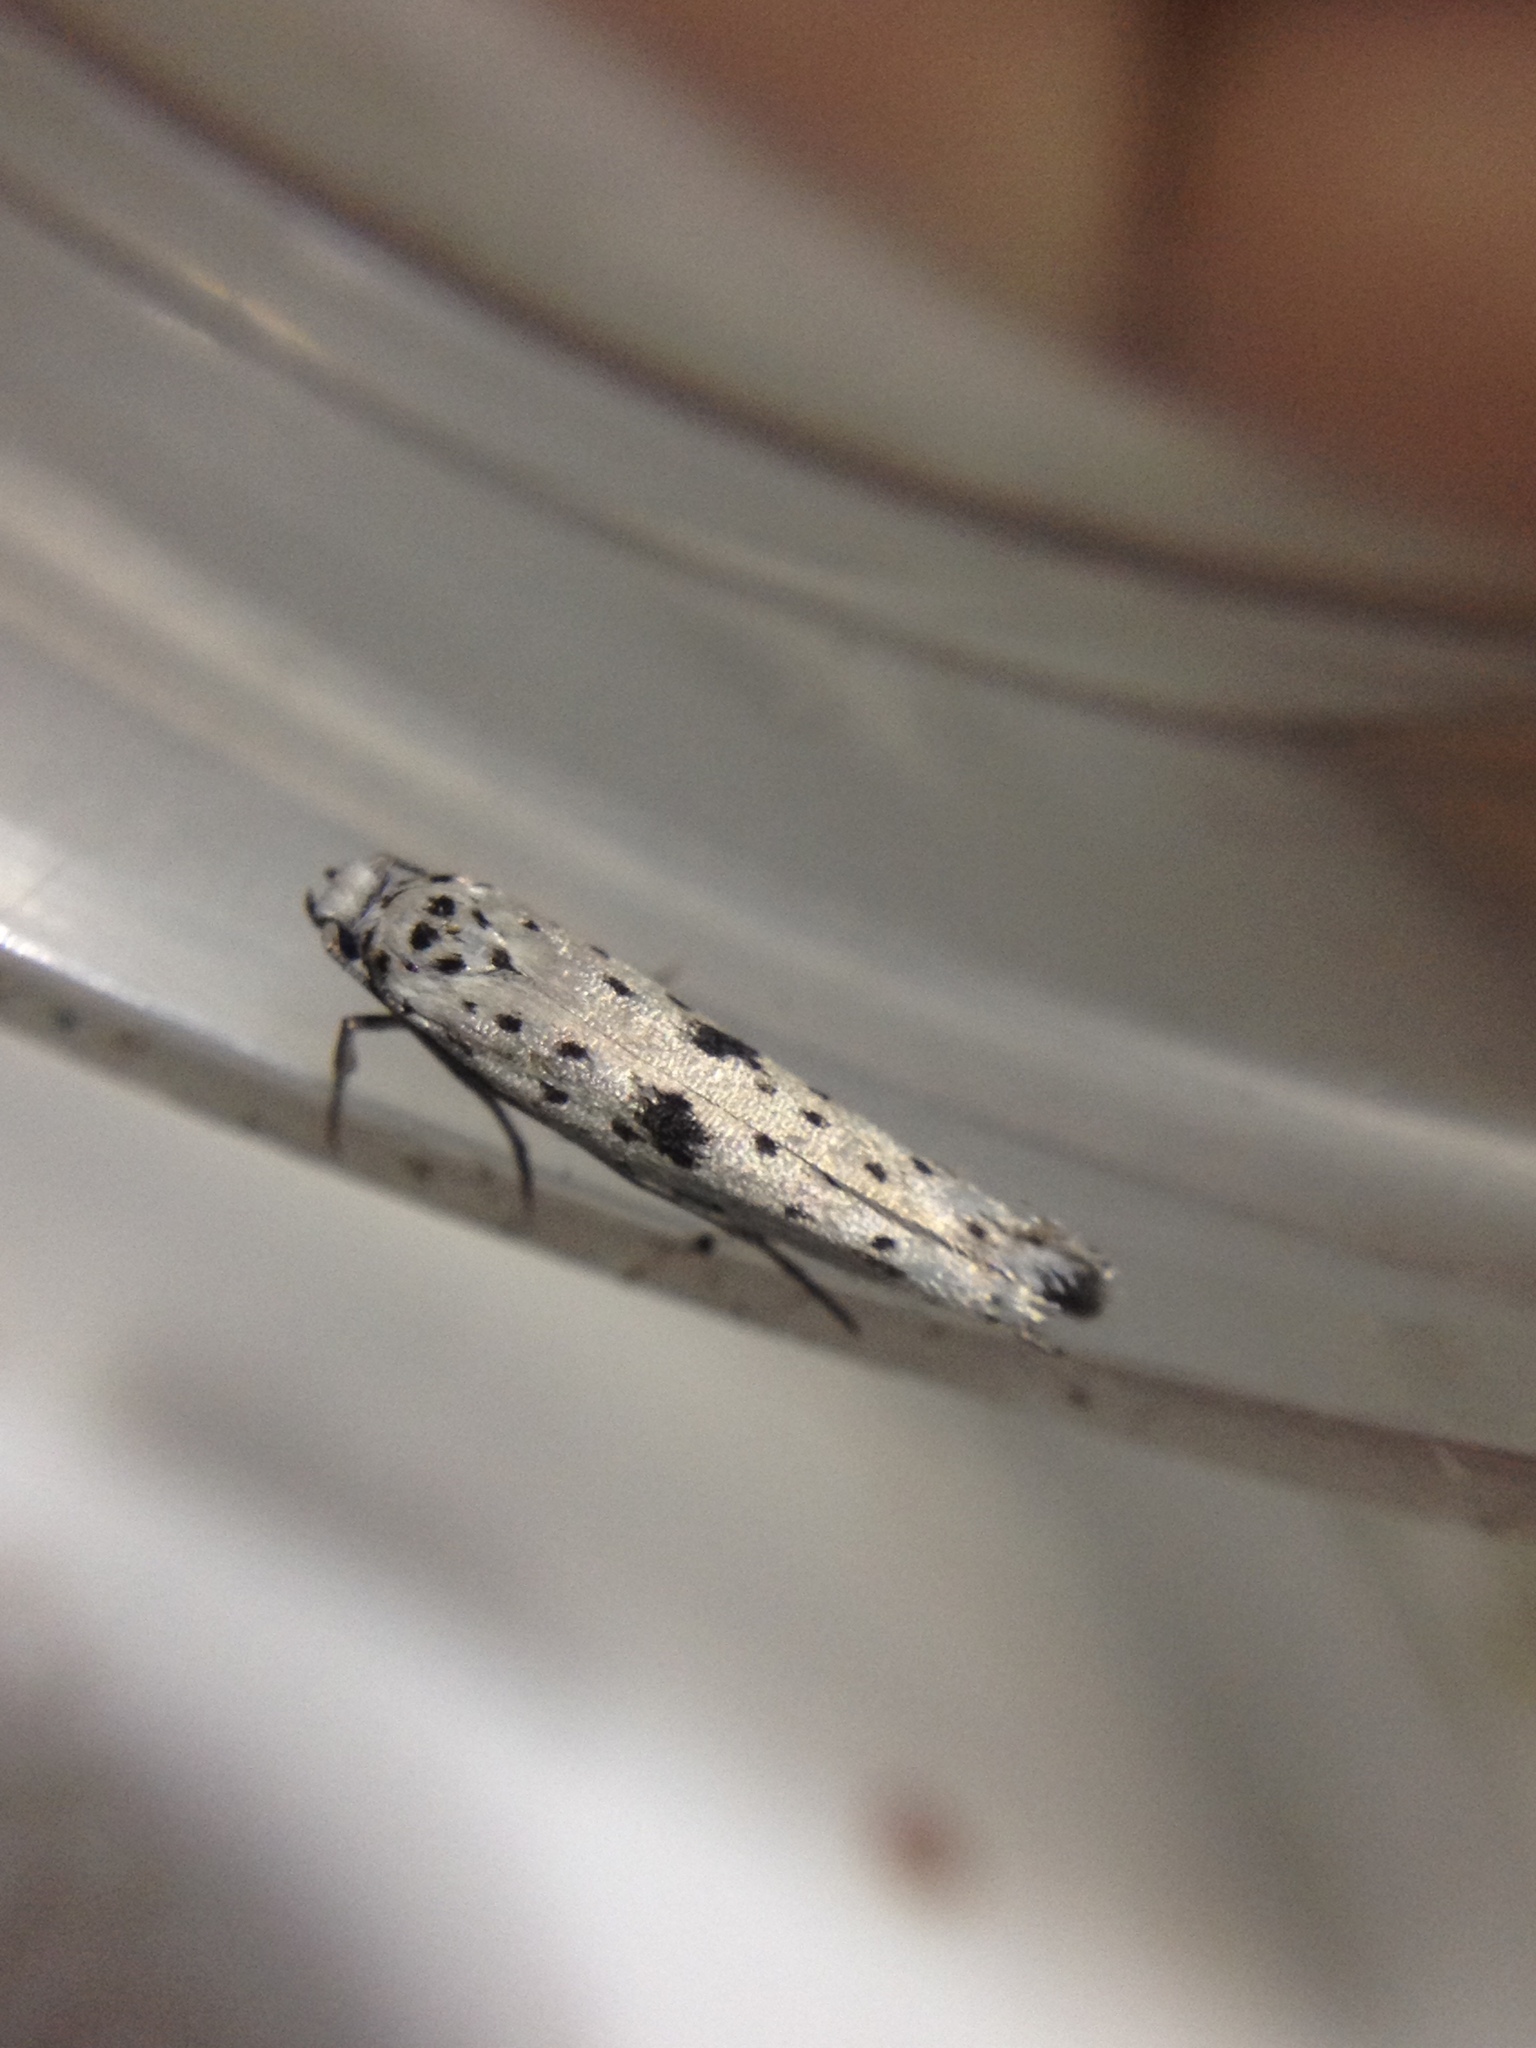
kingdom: Animalia
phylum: Arthropoda
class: Insecta
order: Lepidoptera
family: Yponomeutidae
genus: Yponomeuta
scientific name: Yponomeuta plumbella
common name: Black-tipped ermine
